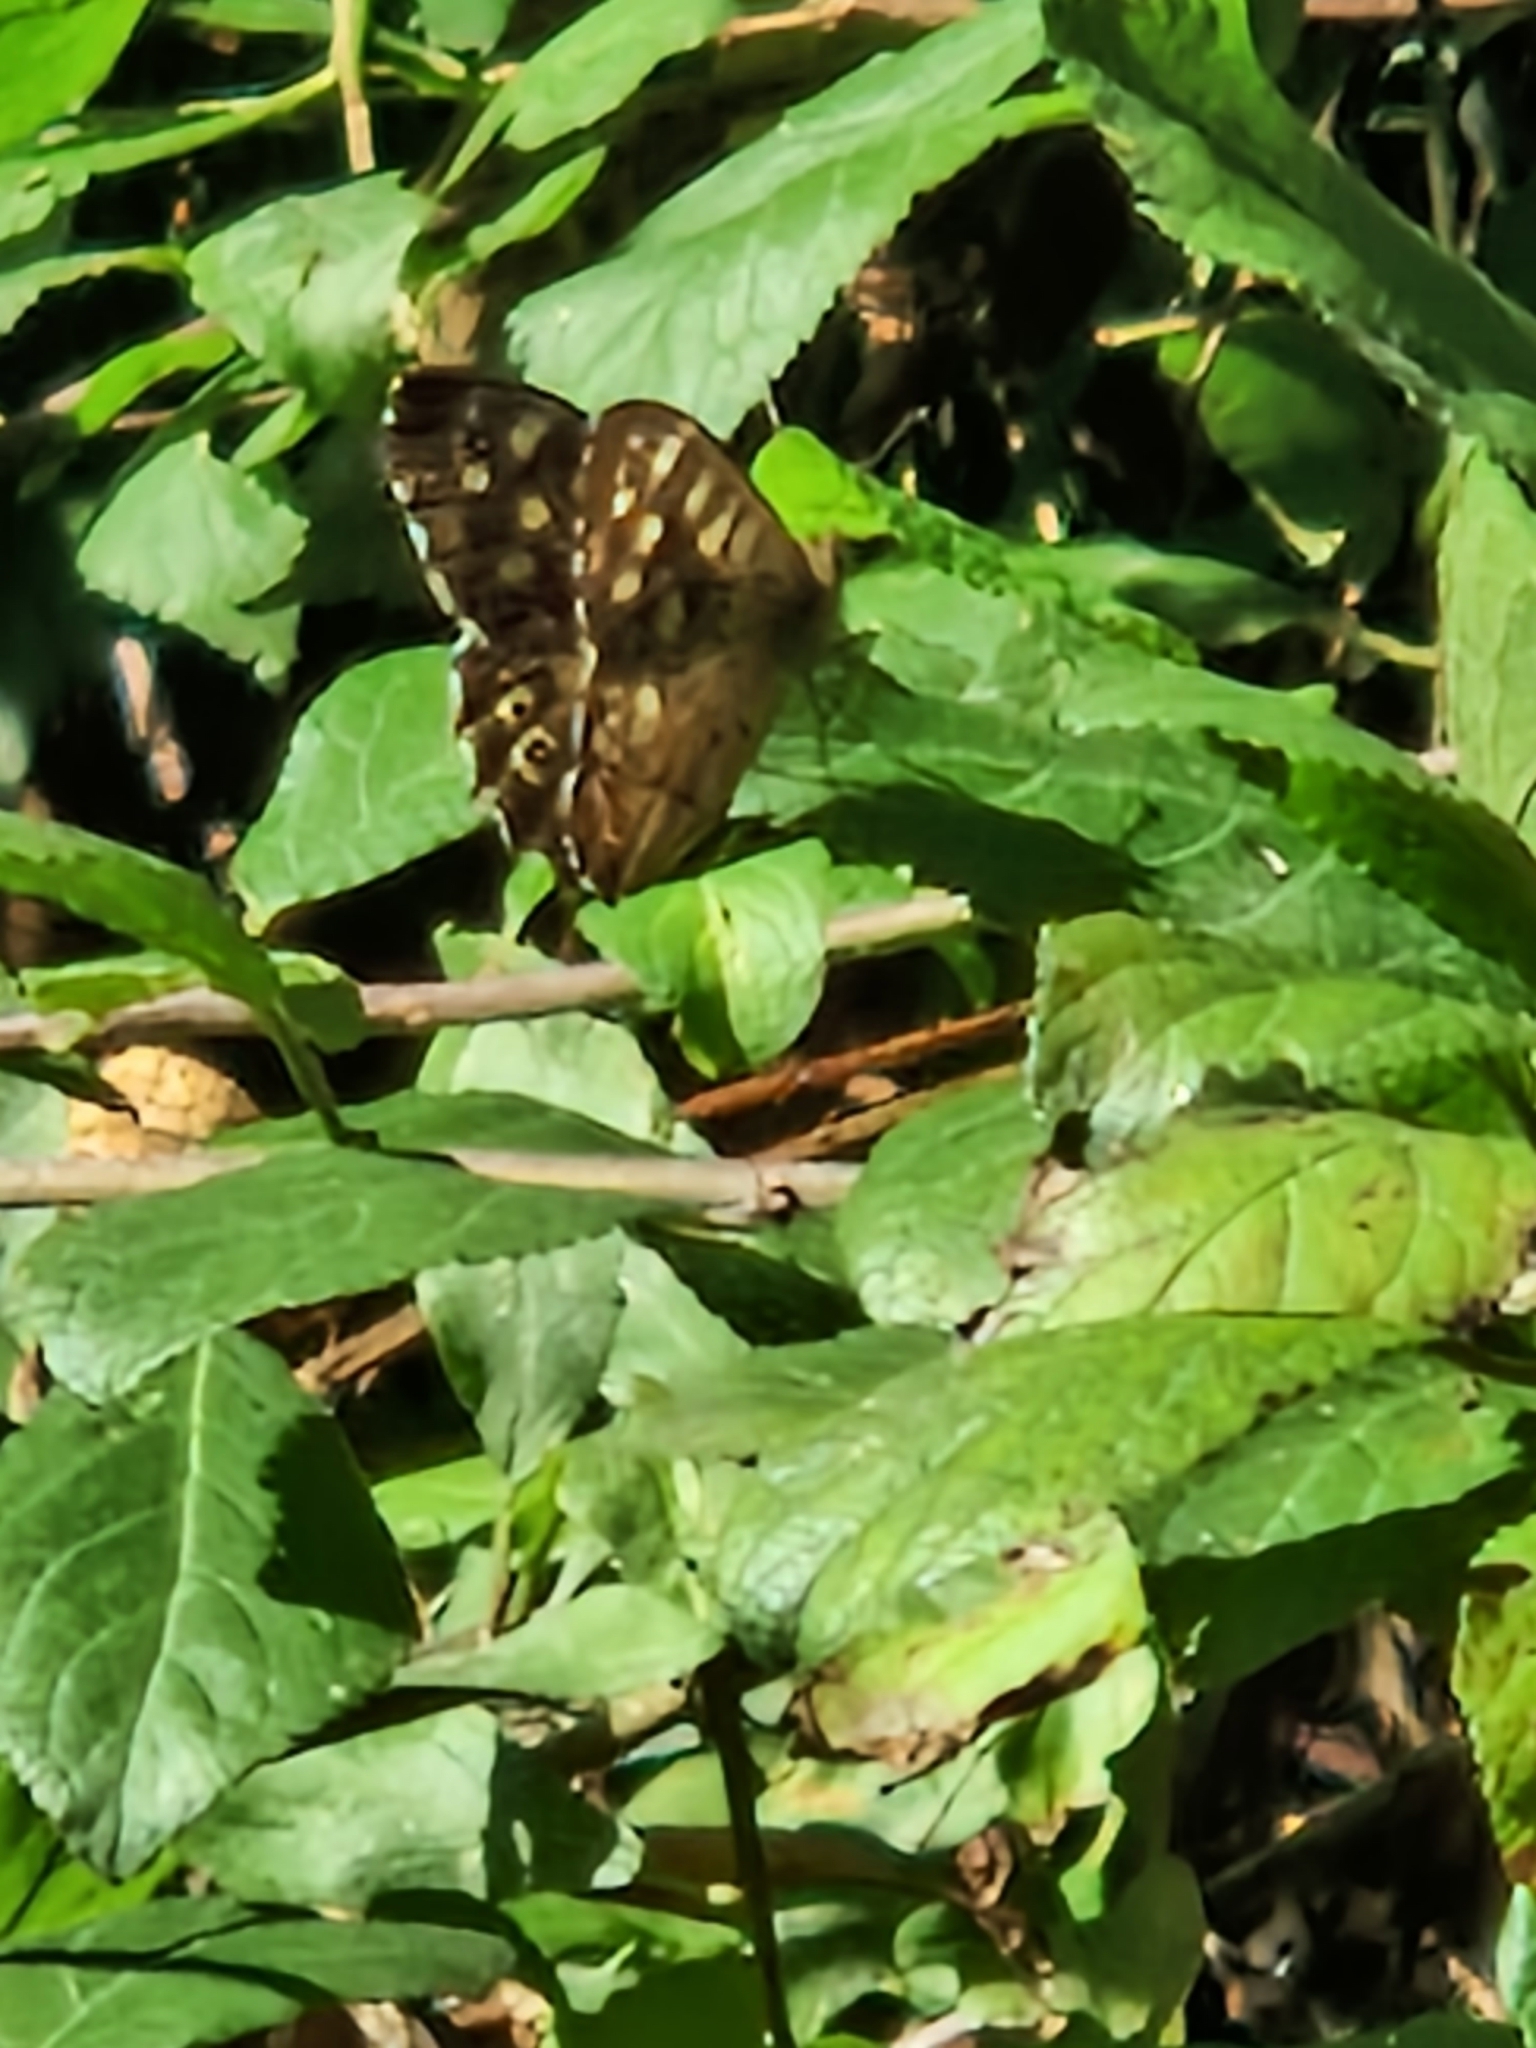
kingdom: Animalia
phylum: Arthropoda
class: Insecta
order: Lepidoptera
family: Nymphalidae
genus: Pararge
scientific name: Pararge aegeria
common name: Speckled wood
